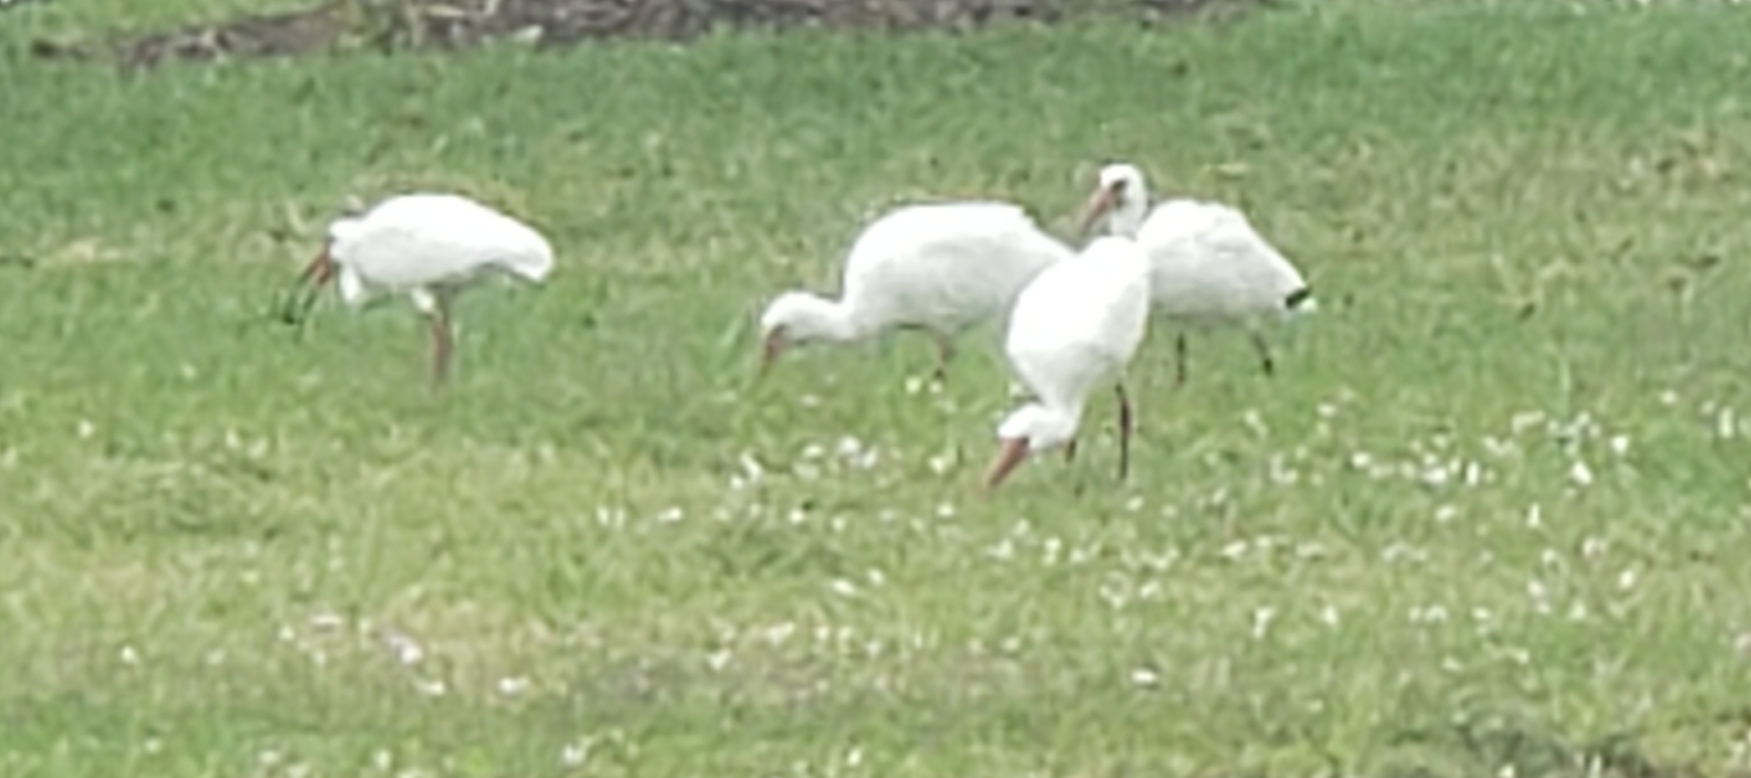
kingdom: Animalia
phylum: Chordata
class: Aves
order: Pelecaniformes
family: Threskiornithidae
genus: Eudocimus
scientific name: Eudocimus albus
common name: White ibis
